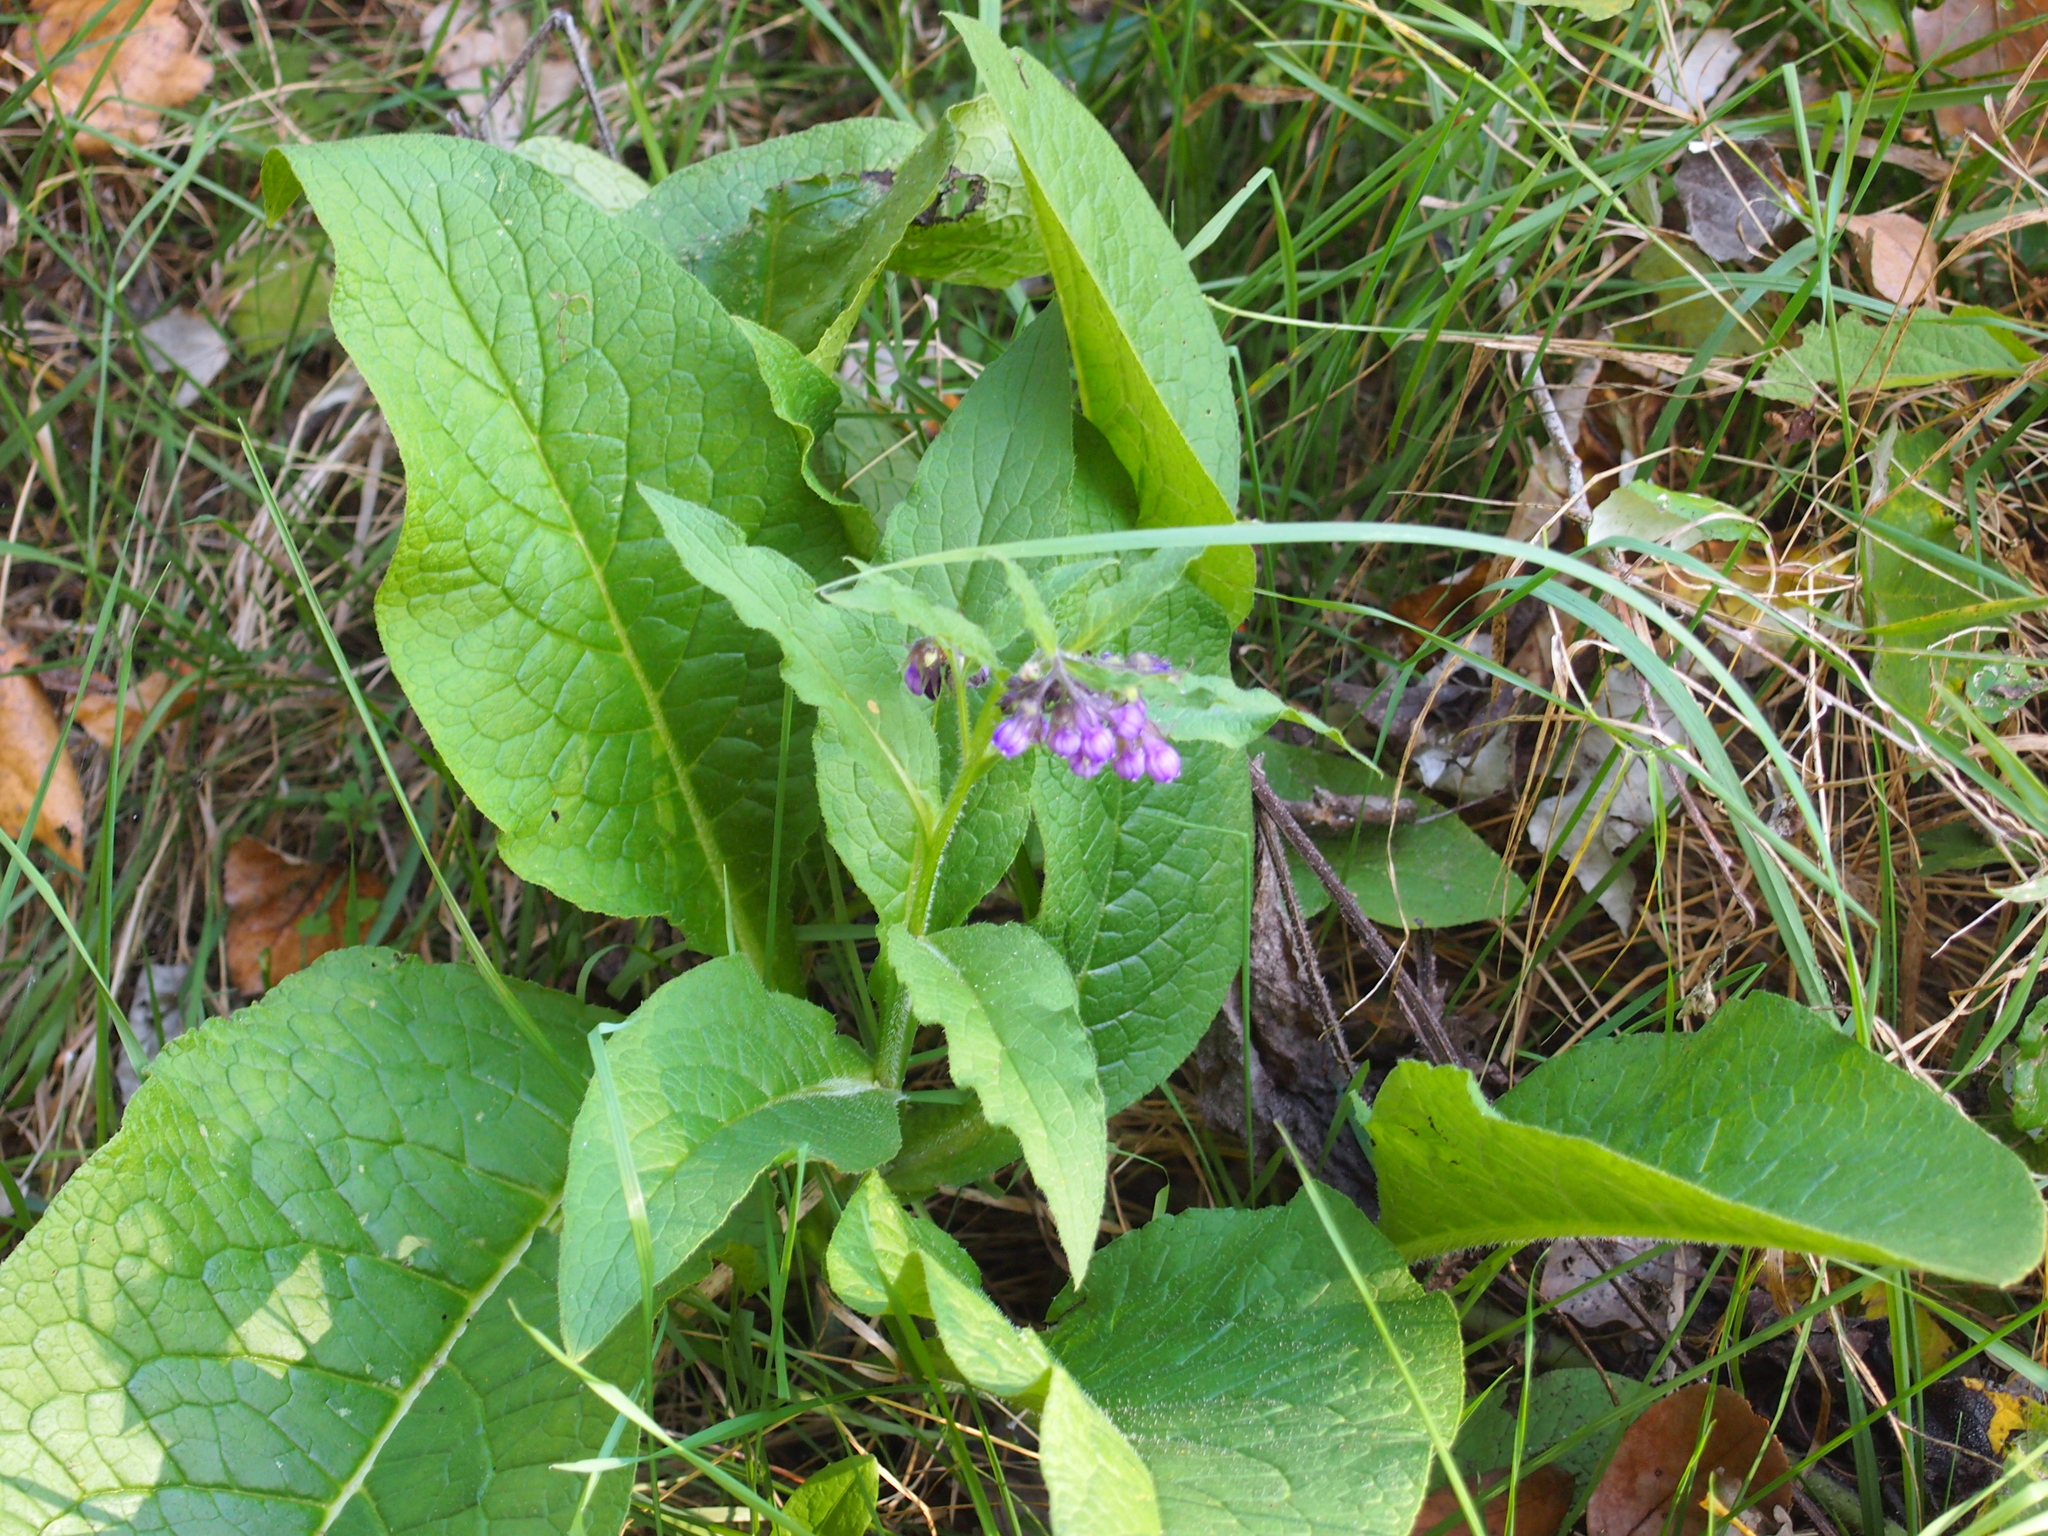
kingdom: Plantae
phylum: Tracheophyta
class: Magnoliopsida
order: Boraginales
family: Boraginaceae
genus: Symphytum
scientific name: Symphytum officinale
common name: Common comfrey
